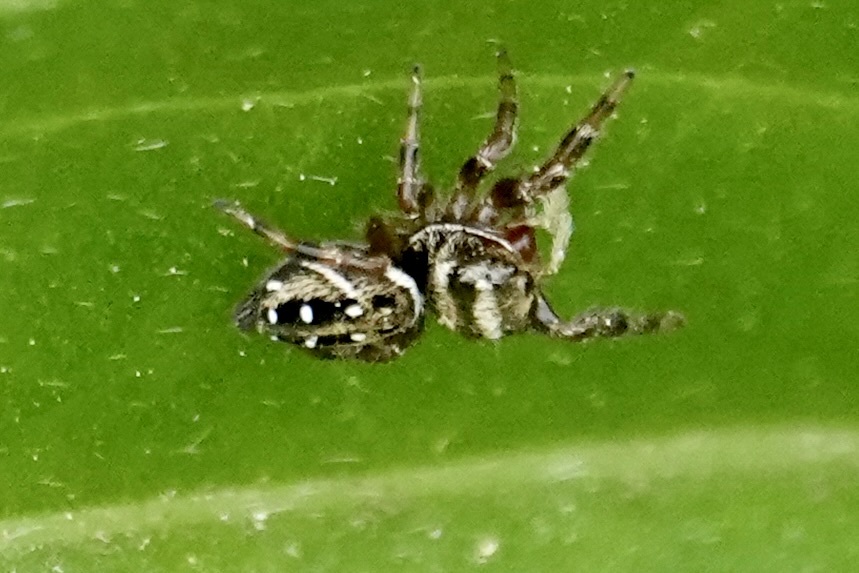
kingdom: Animalia
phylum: Arthropoda
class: Arachnida
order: Araneae
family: Salticidae
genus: Phidippus
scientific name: Phidippus clarus
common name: Brilliant jumping spider
